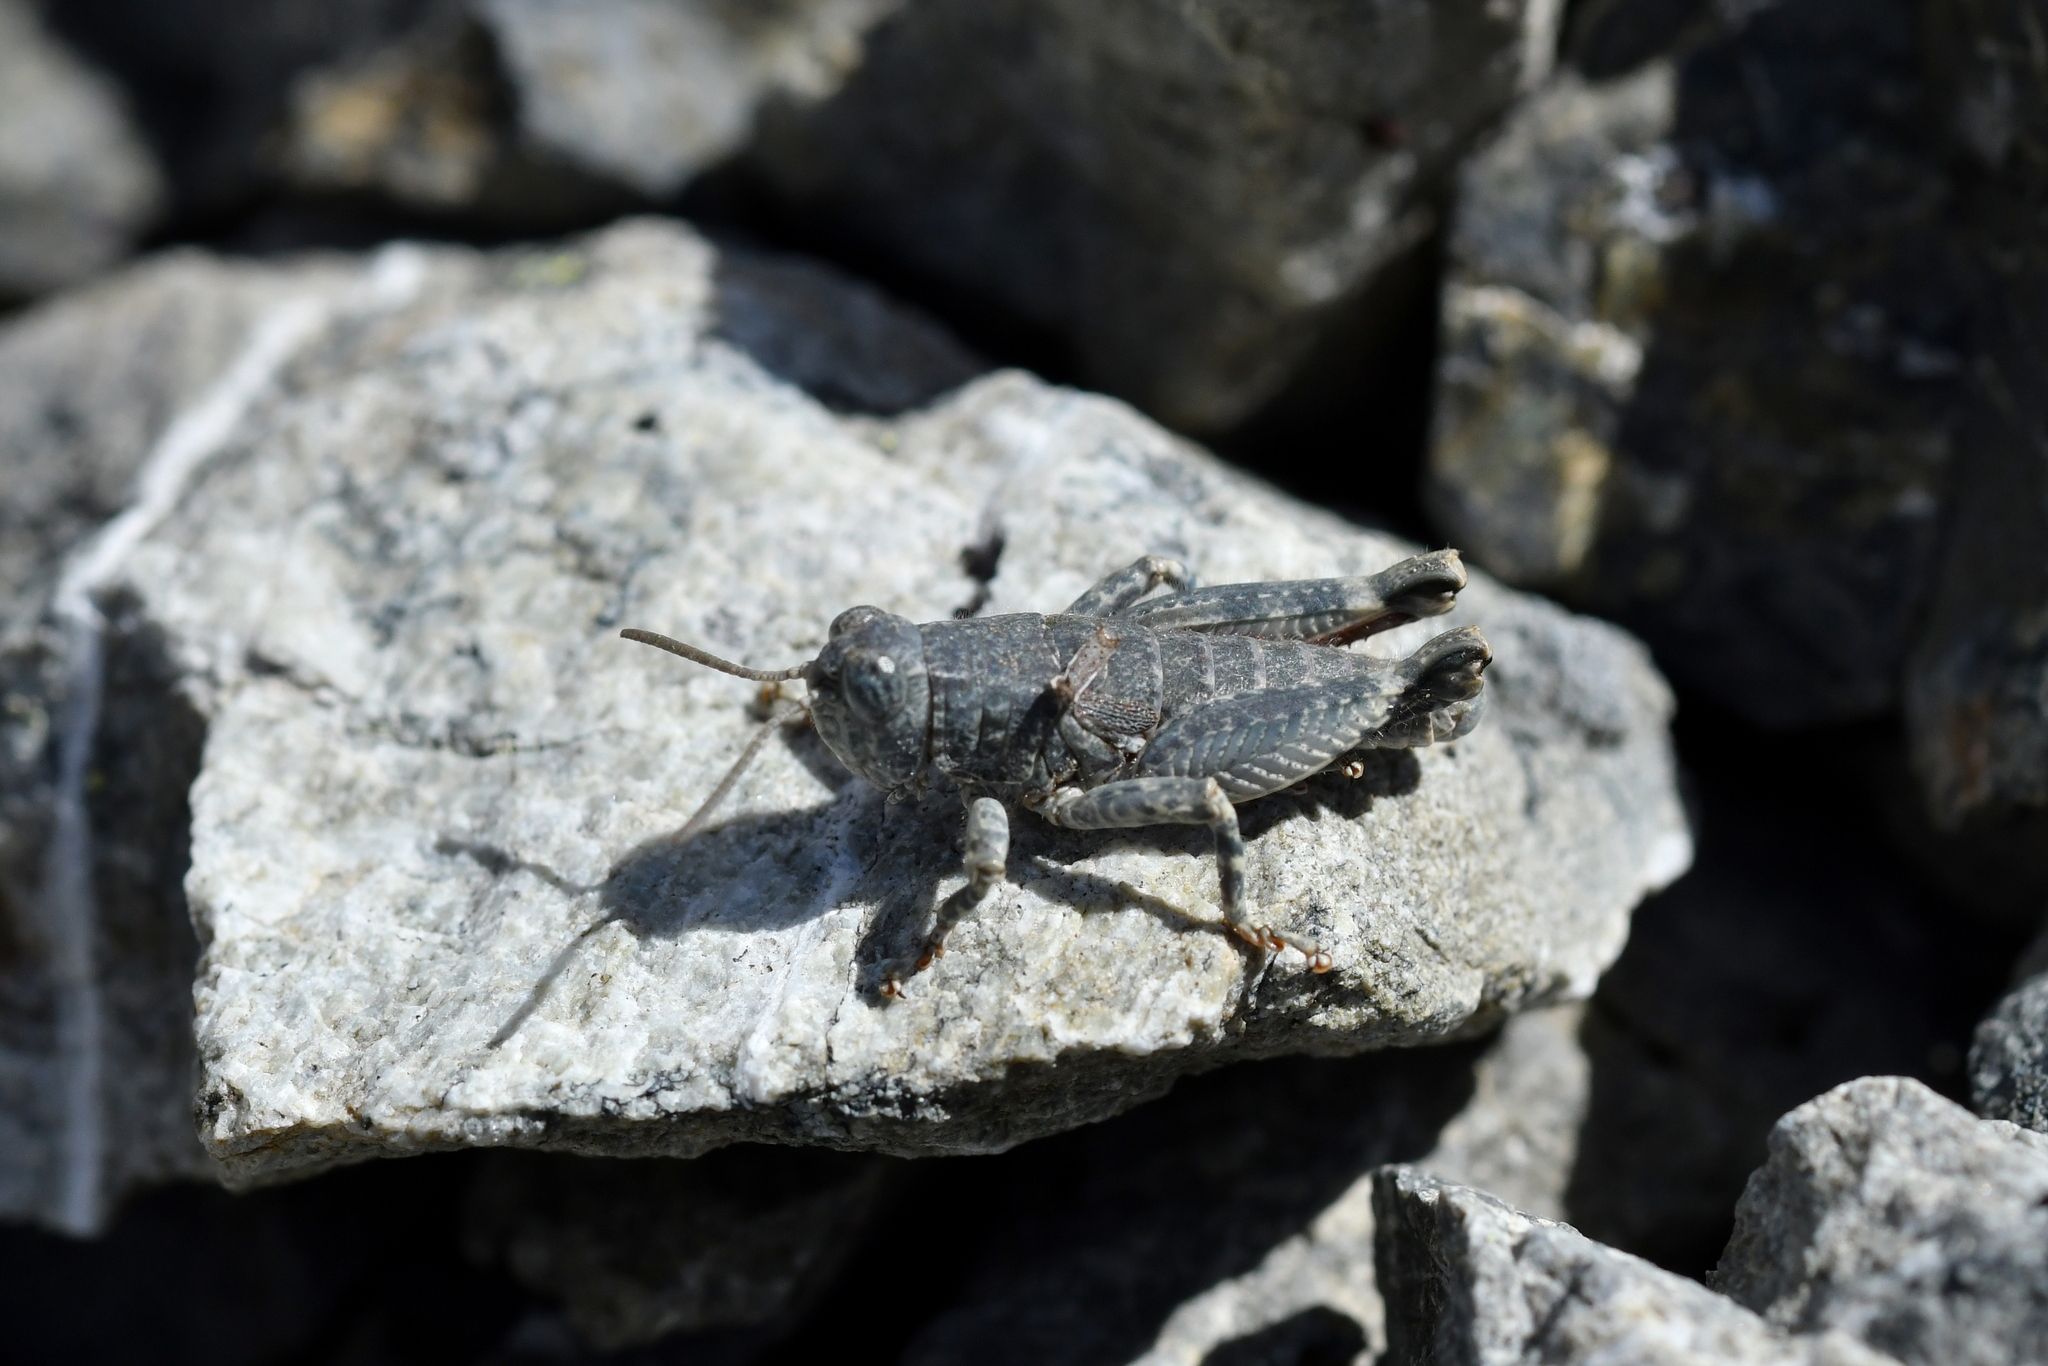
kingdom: Animalia
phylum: Arthropoda
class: Insecta
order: Orthoptera
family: Acrididae
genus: Sigaus
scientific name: Sigaus
